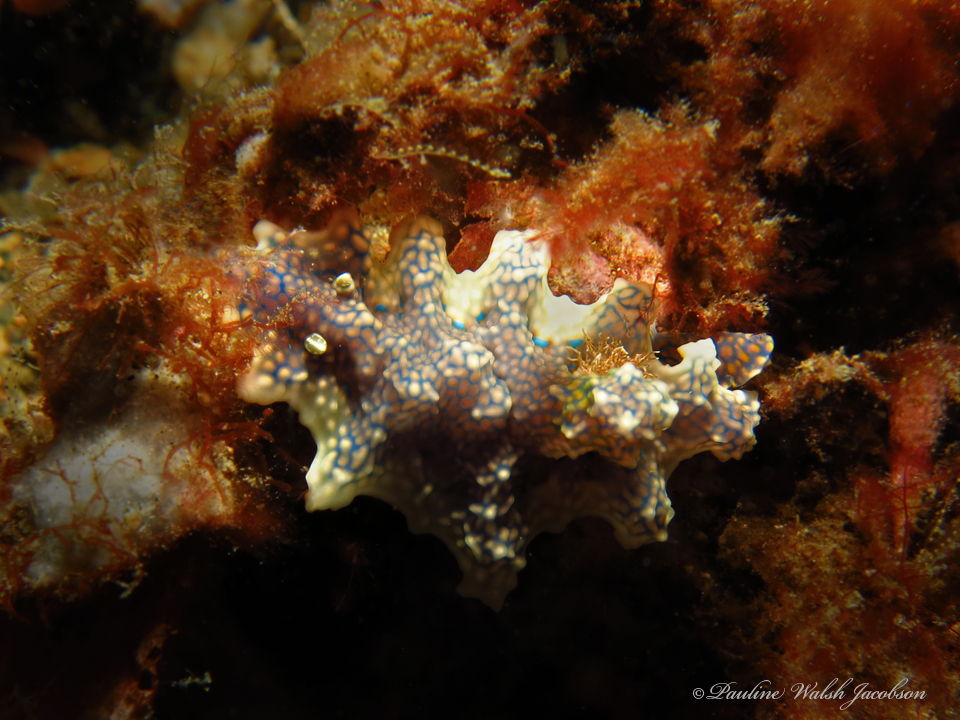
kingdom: Animalia
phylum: Mollusca
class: Gastropoda
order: Nudibranchia
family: Chromodorididae
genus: Miamira
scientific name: Miamira sinuata
